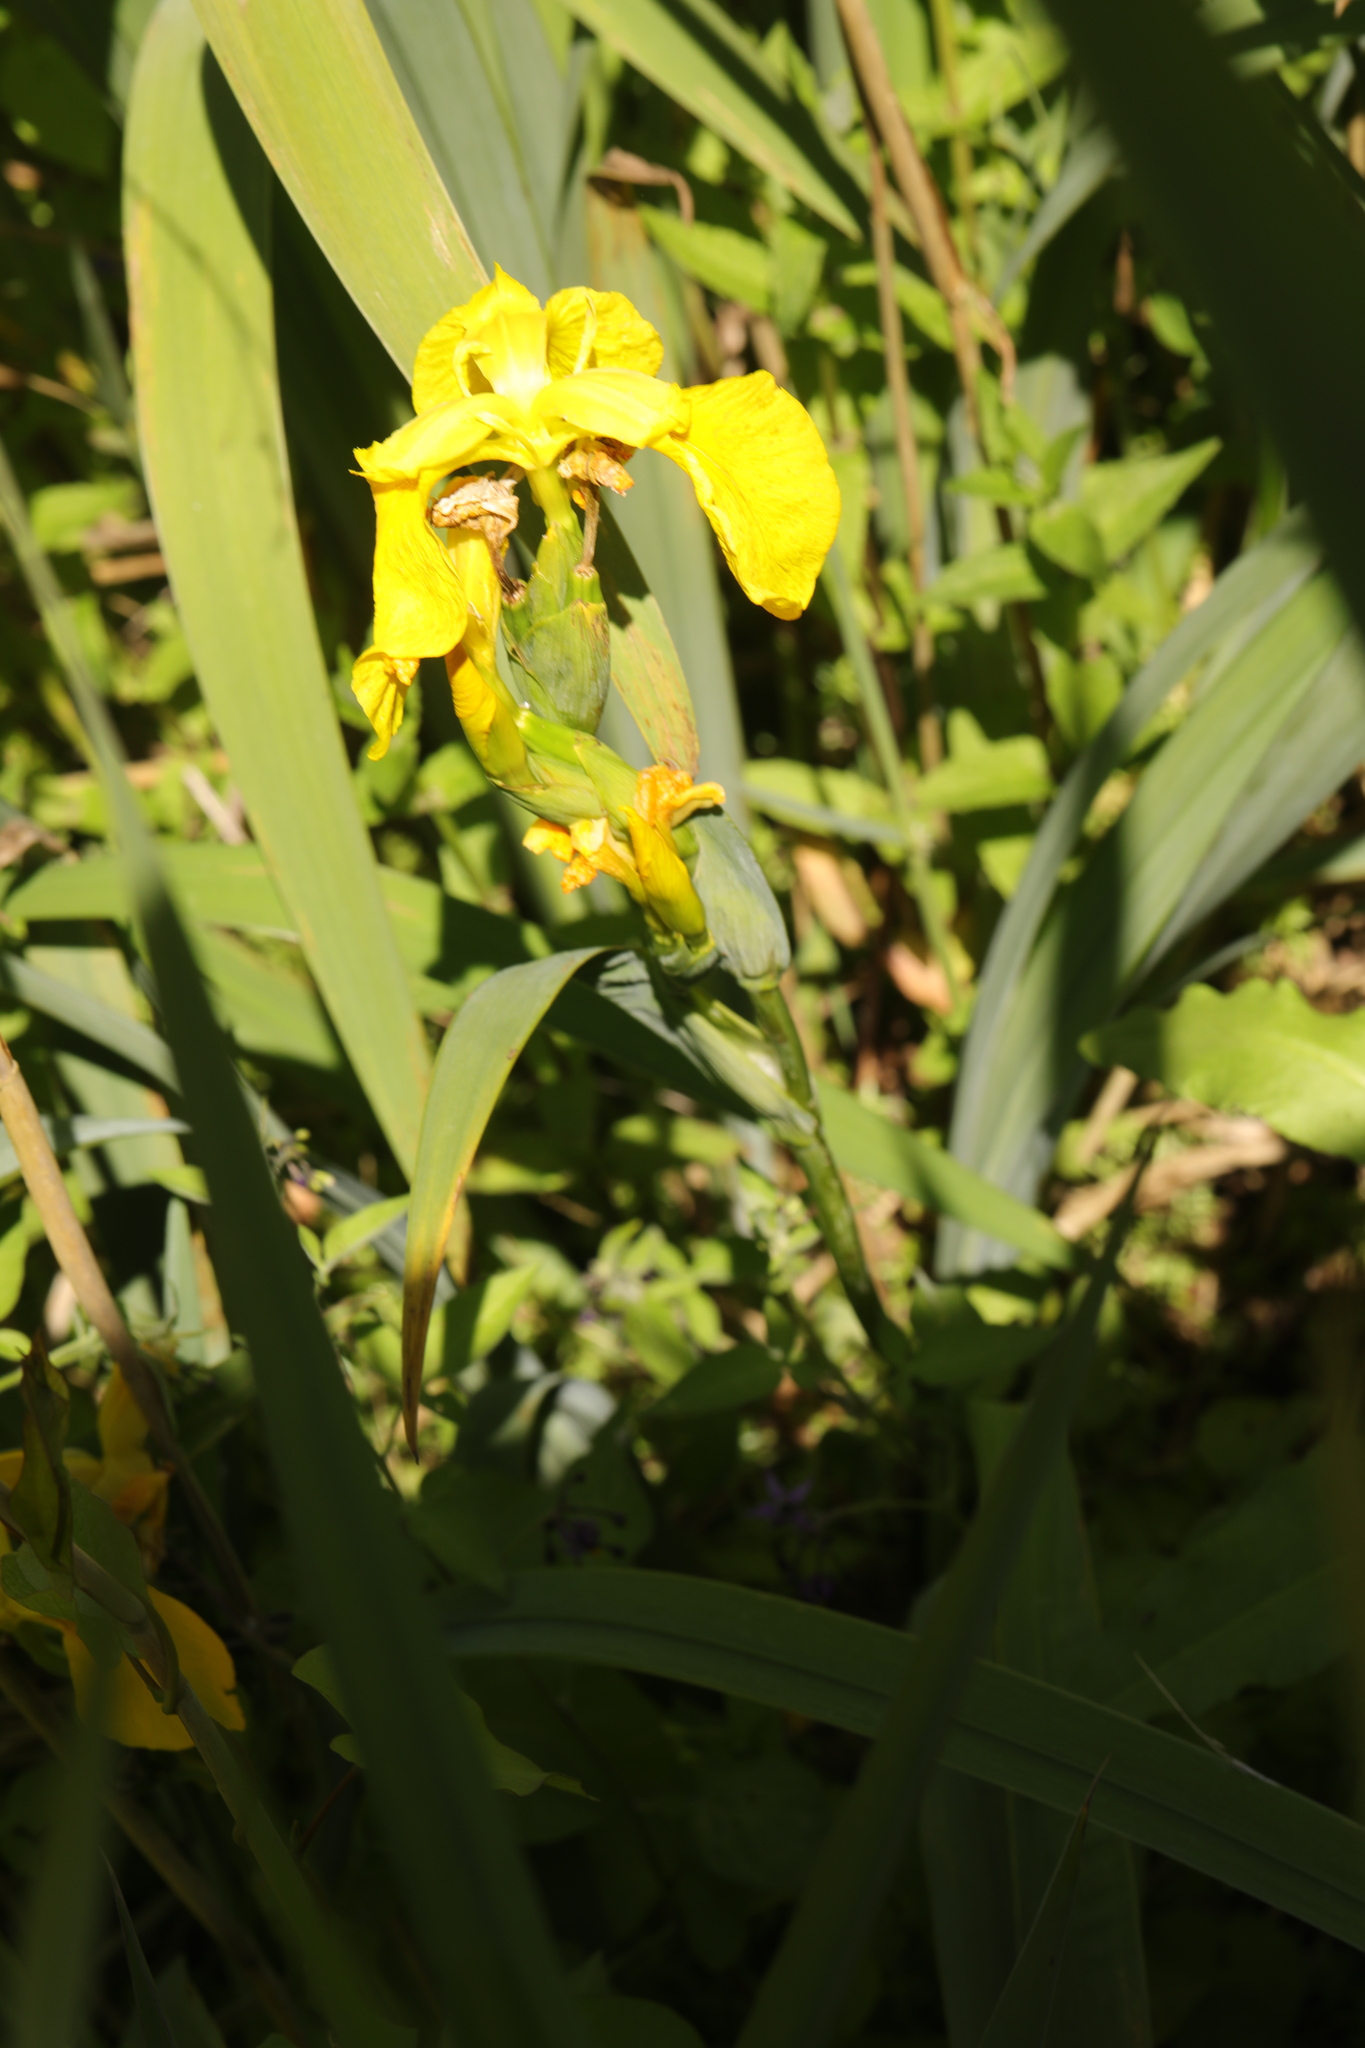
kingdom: Plantae
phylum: Tracheophyta
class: Liliopsida
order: Asparagales
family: Iridaceae
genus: Iris
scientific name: Iris pseudacorus
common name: Yellow flag
